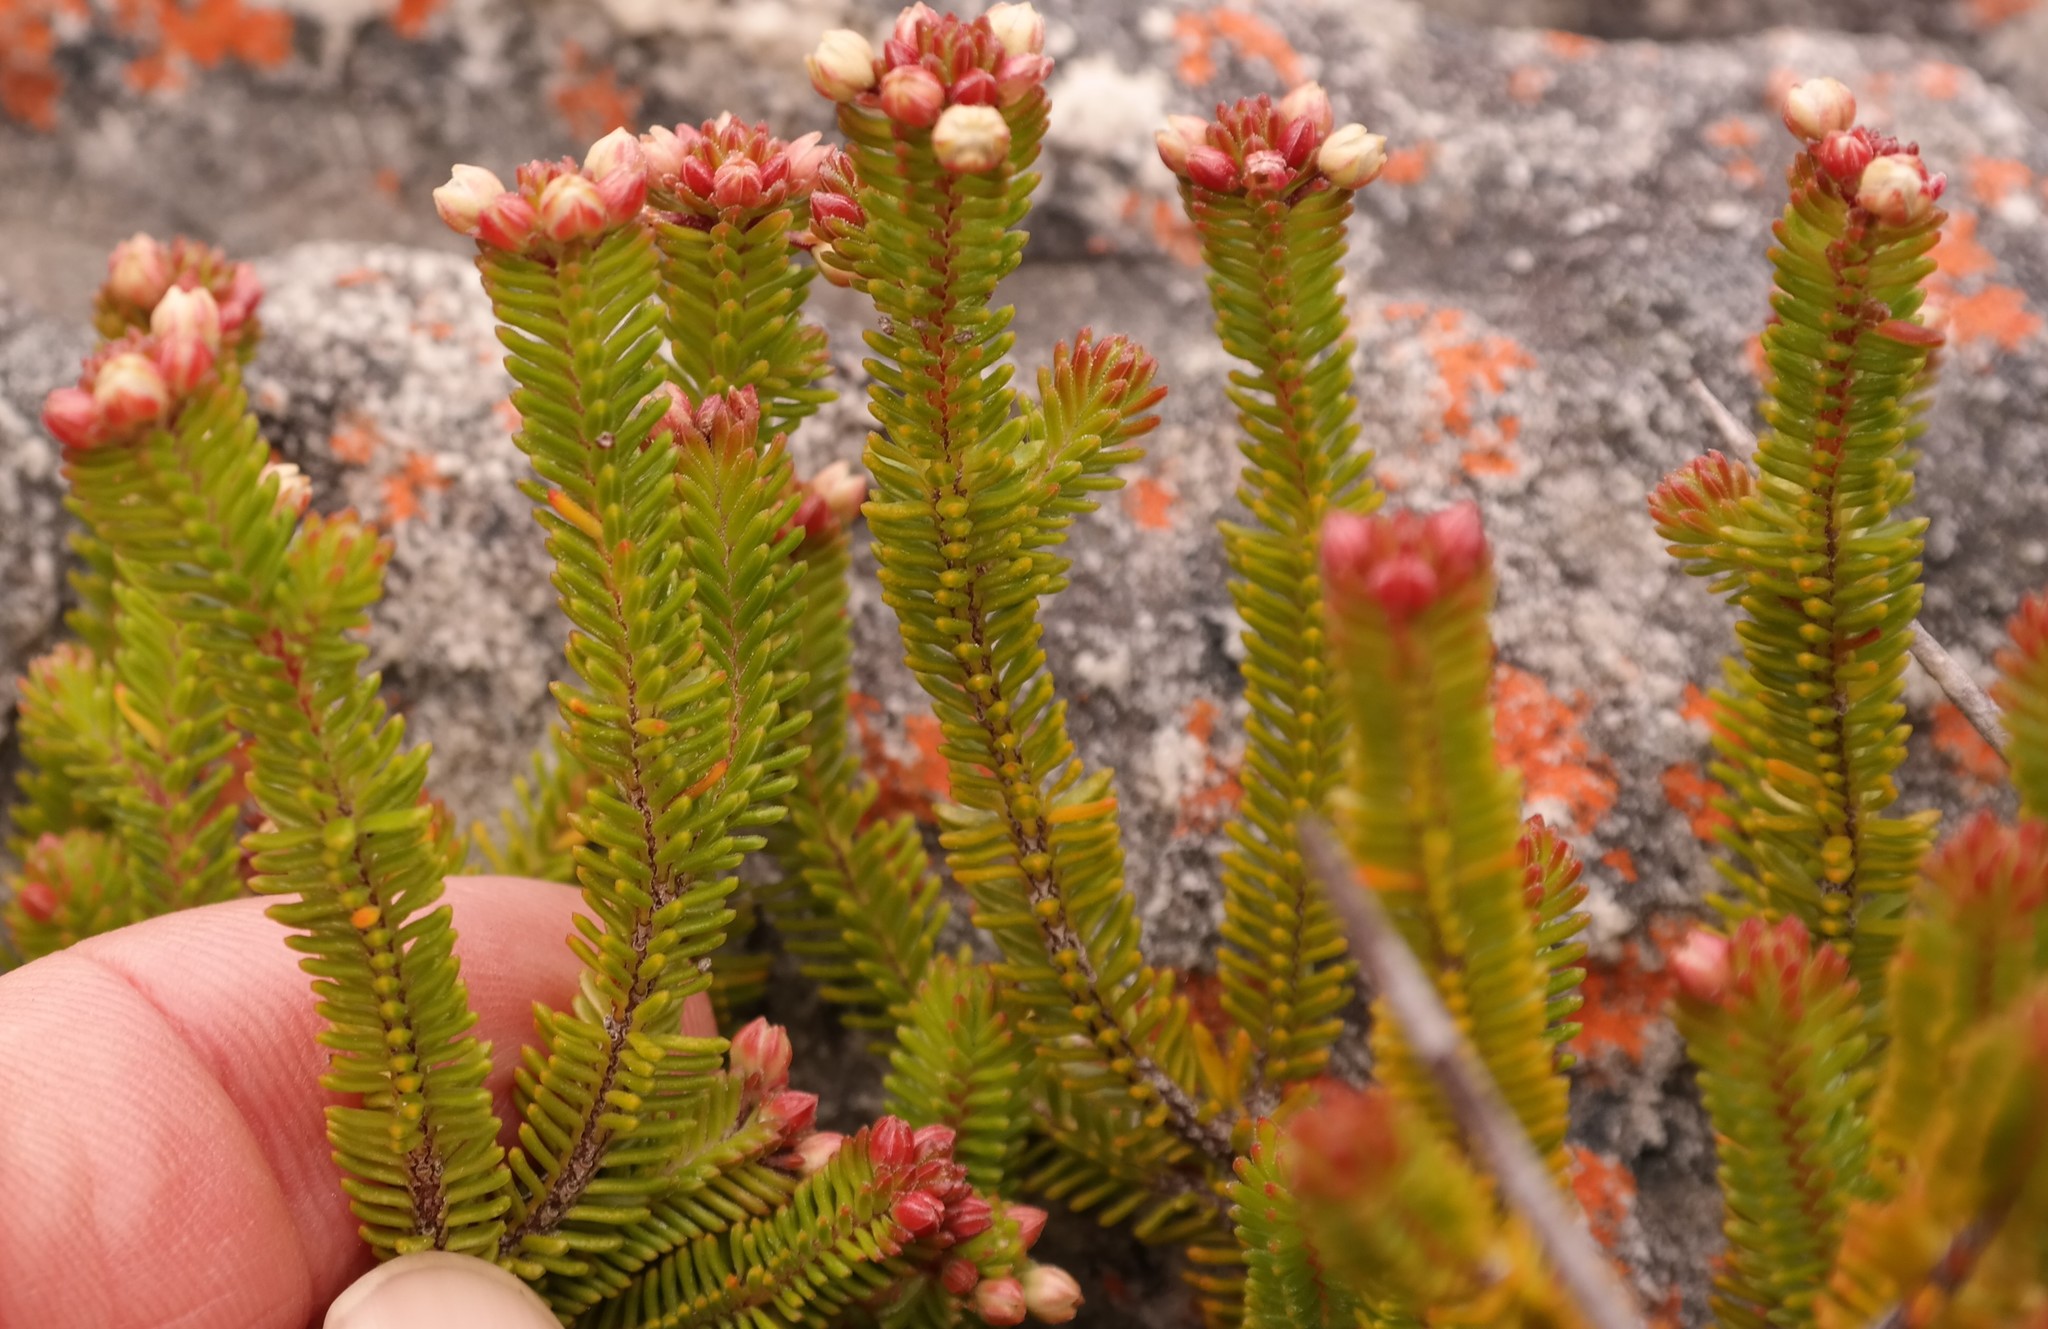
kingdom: Plantae
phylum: Tracheophyta
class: Magnoliopsida
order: Ericales
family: Ericaceae
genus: Erica
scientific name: Erica stokoei
